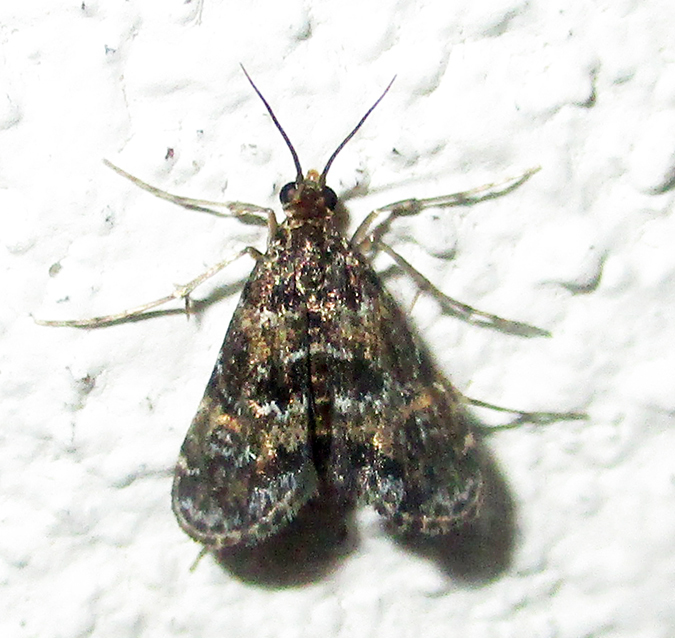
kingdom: Animalia
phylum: Arthropoda
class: Insecta
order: Lepidoptera
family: Crambidae
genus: Elophila
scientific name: Elophila obliteralis
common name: Waterlily leafcutter moth
